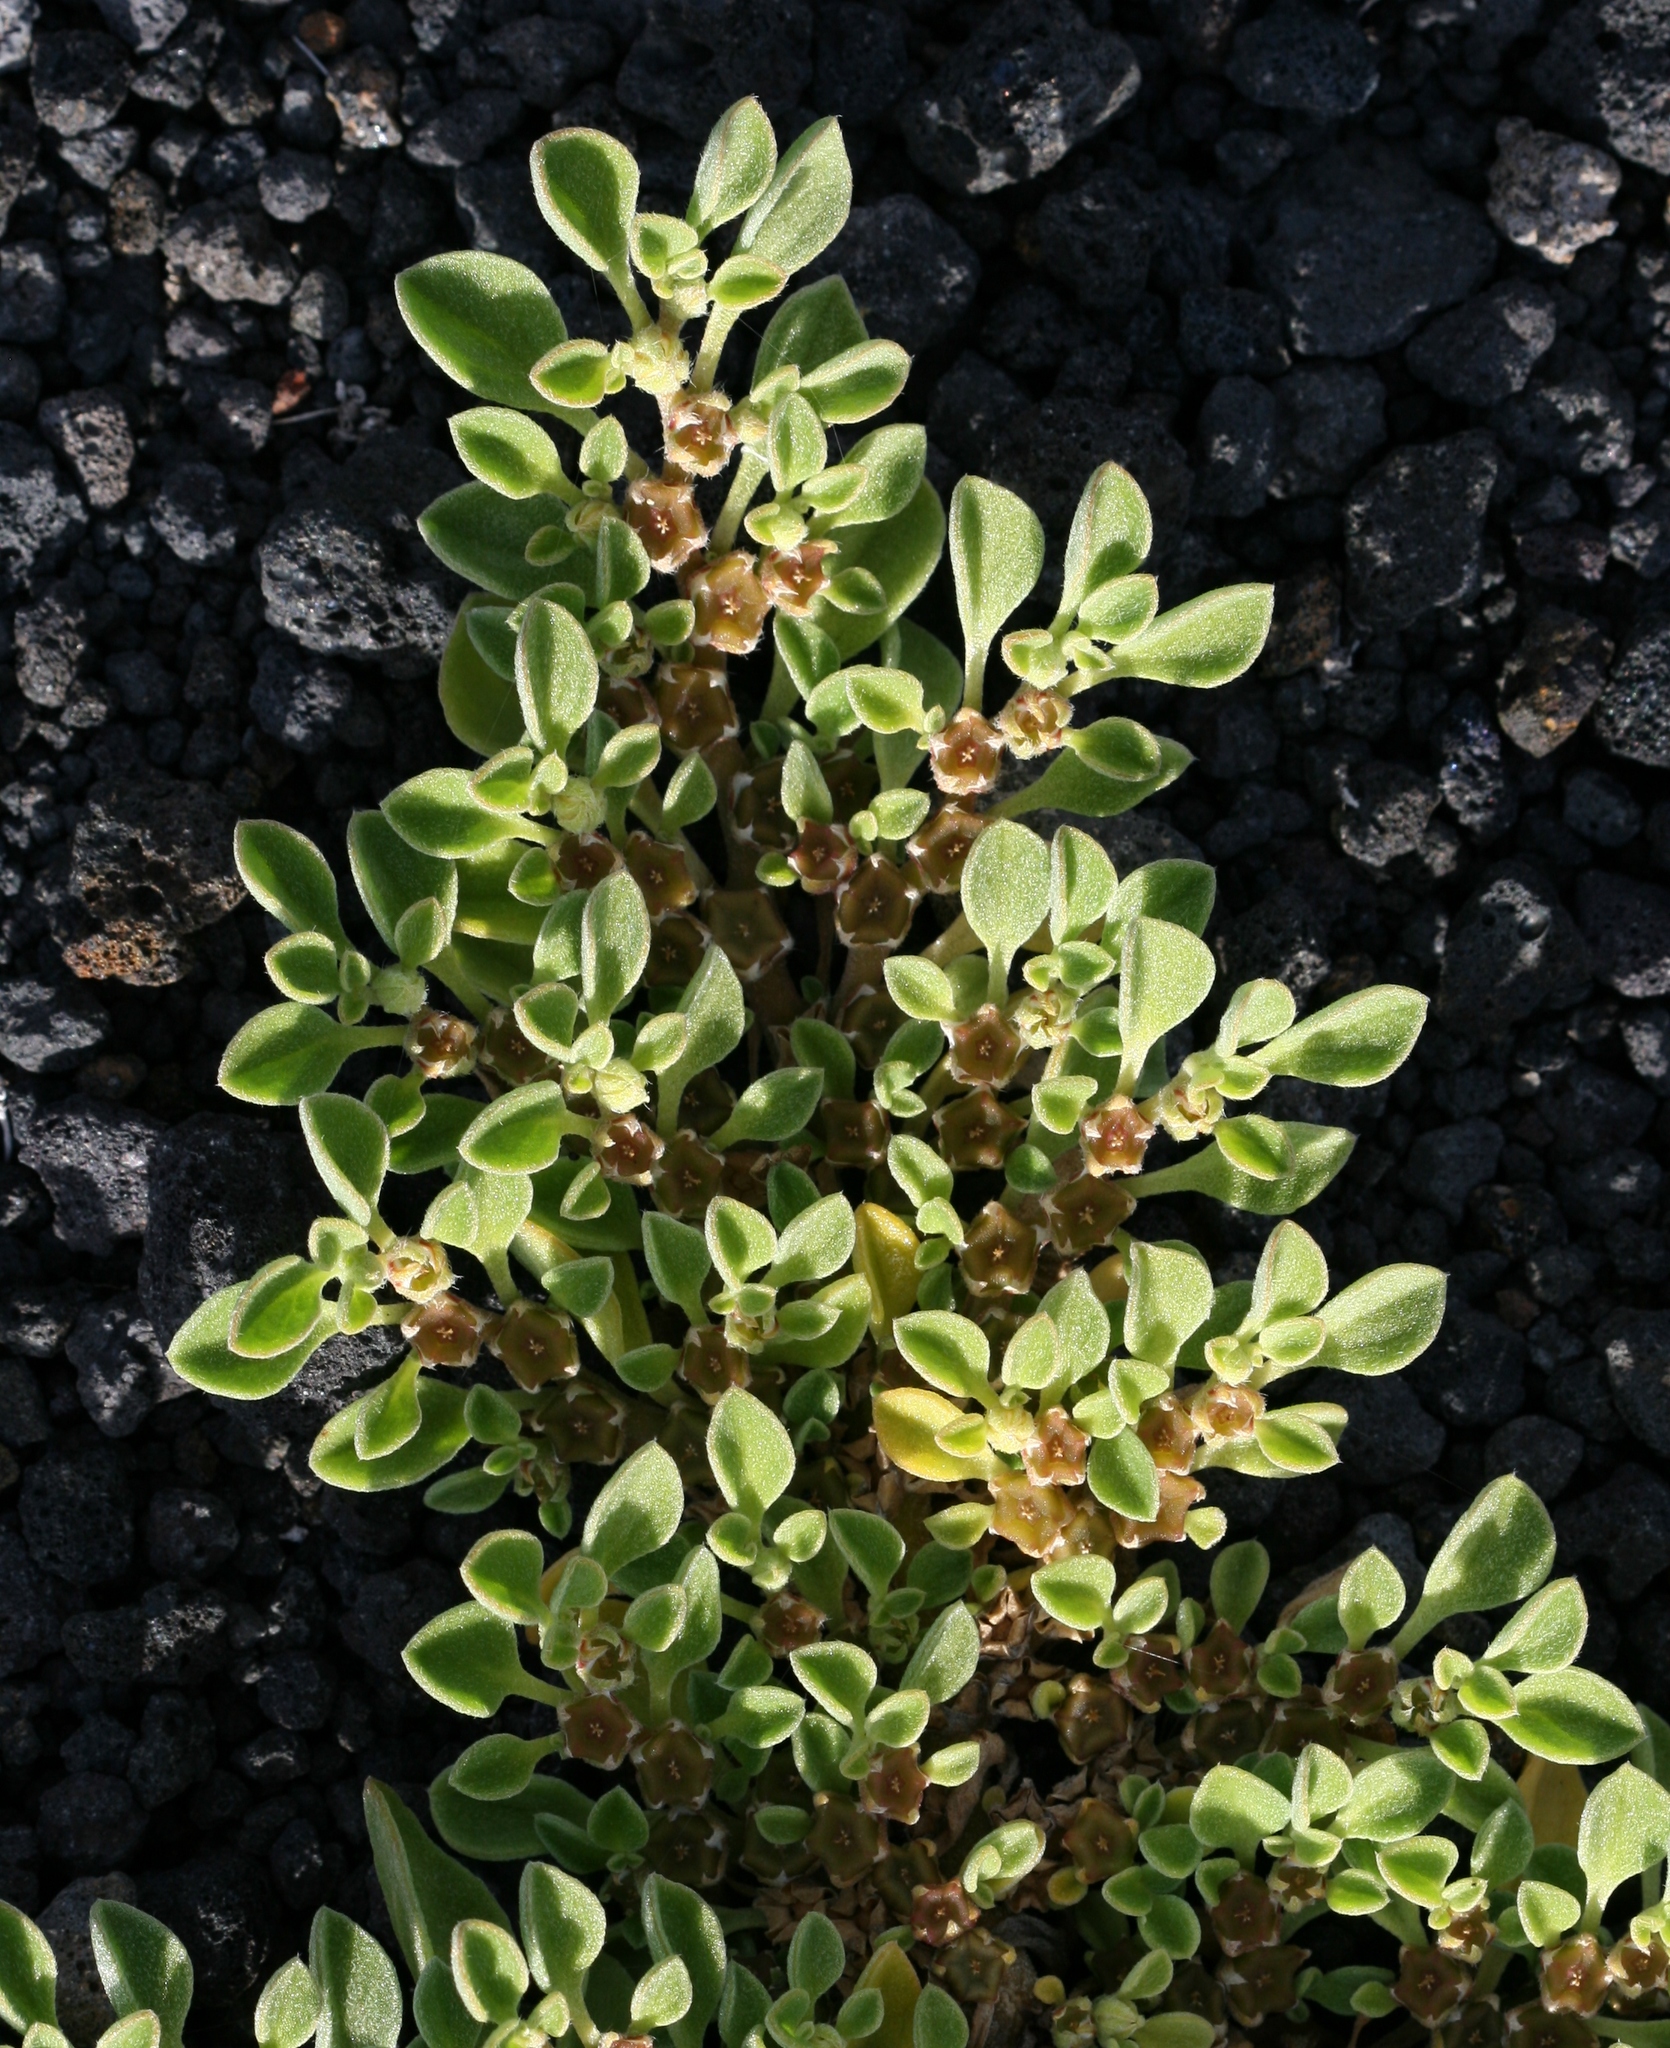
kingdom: Plantae
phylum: Tracheophyta
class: Magnoliopsida
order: Caryophyllales
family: Aizoaceae
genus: Aizoon
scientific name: Aizoon canariense
